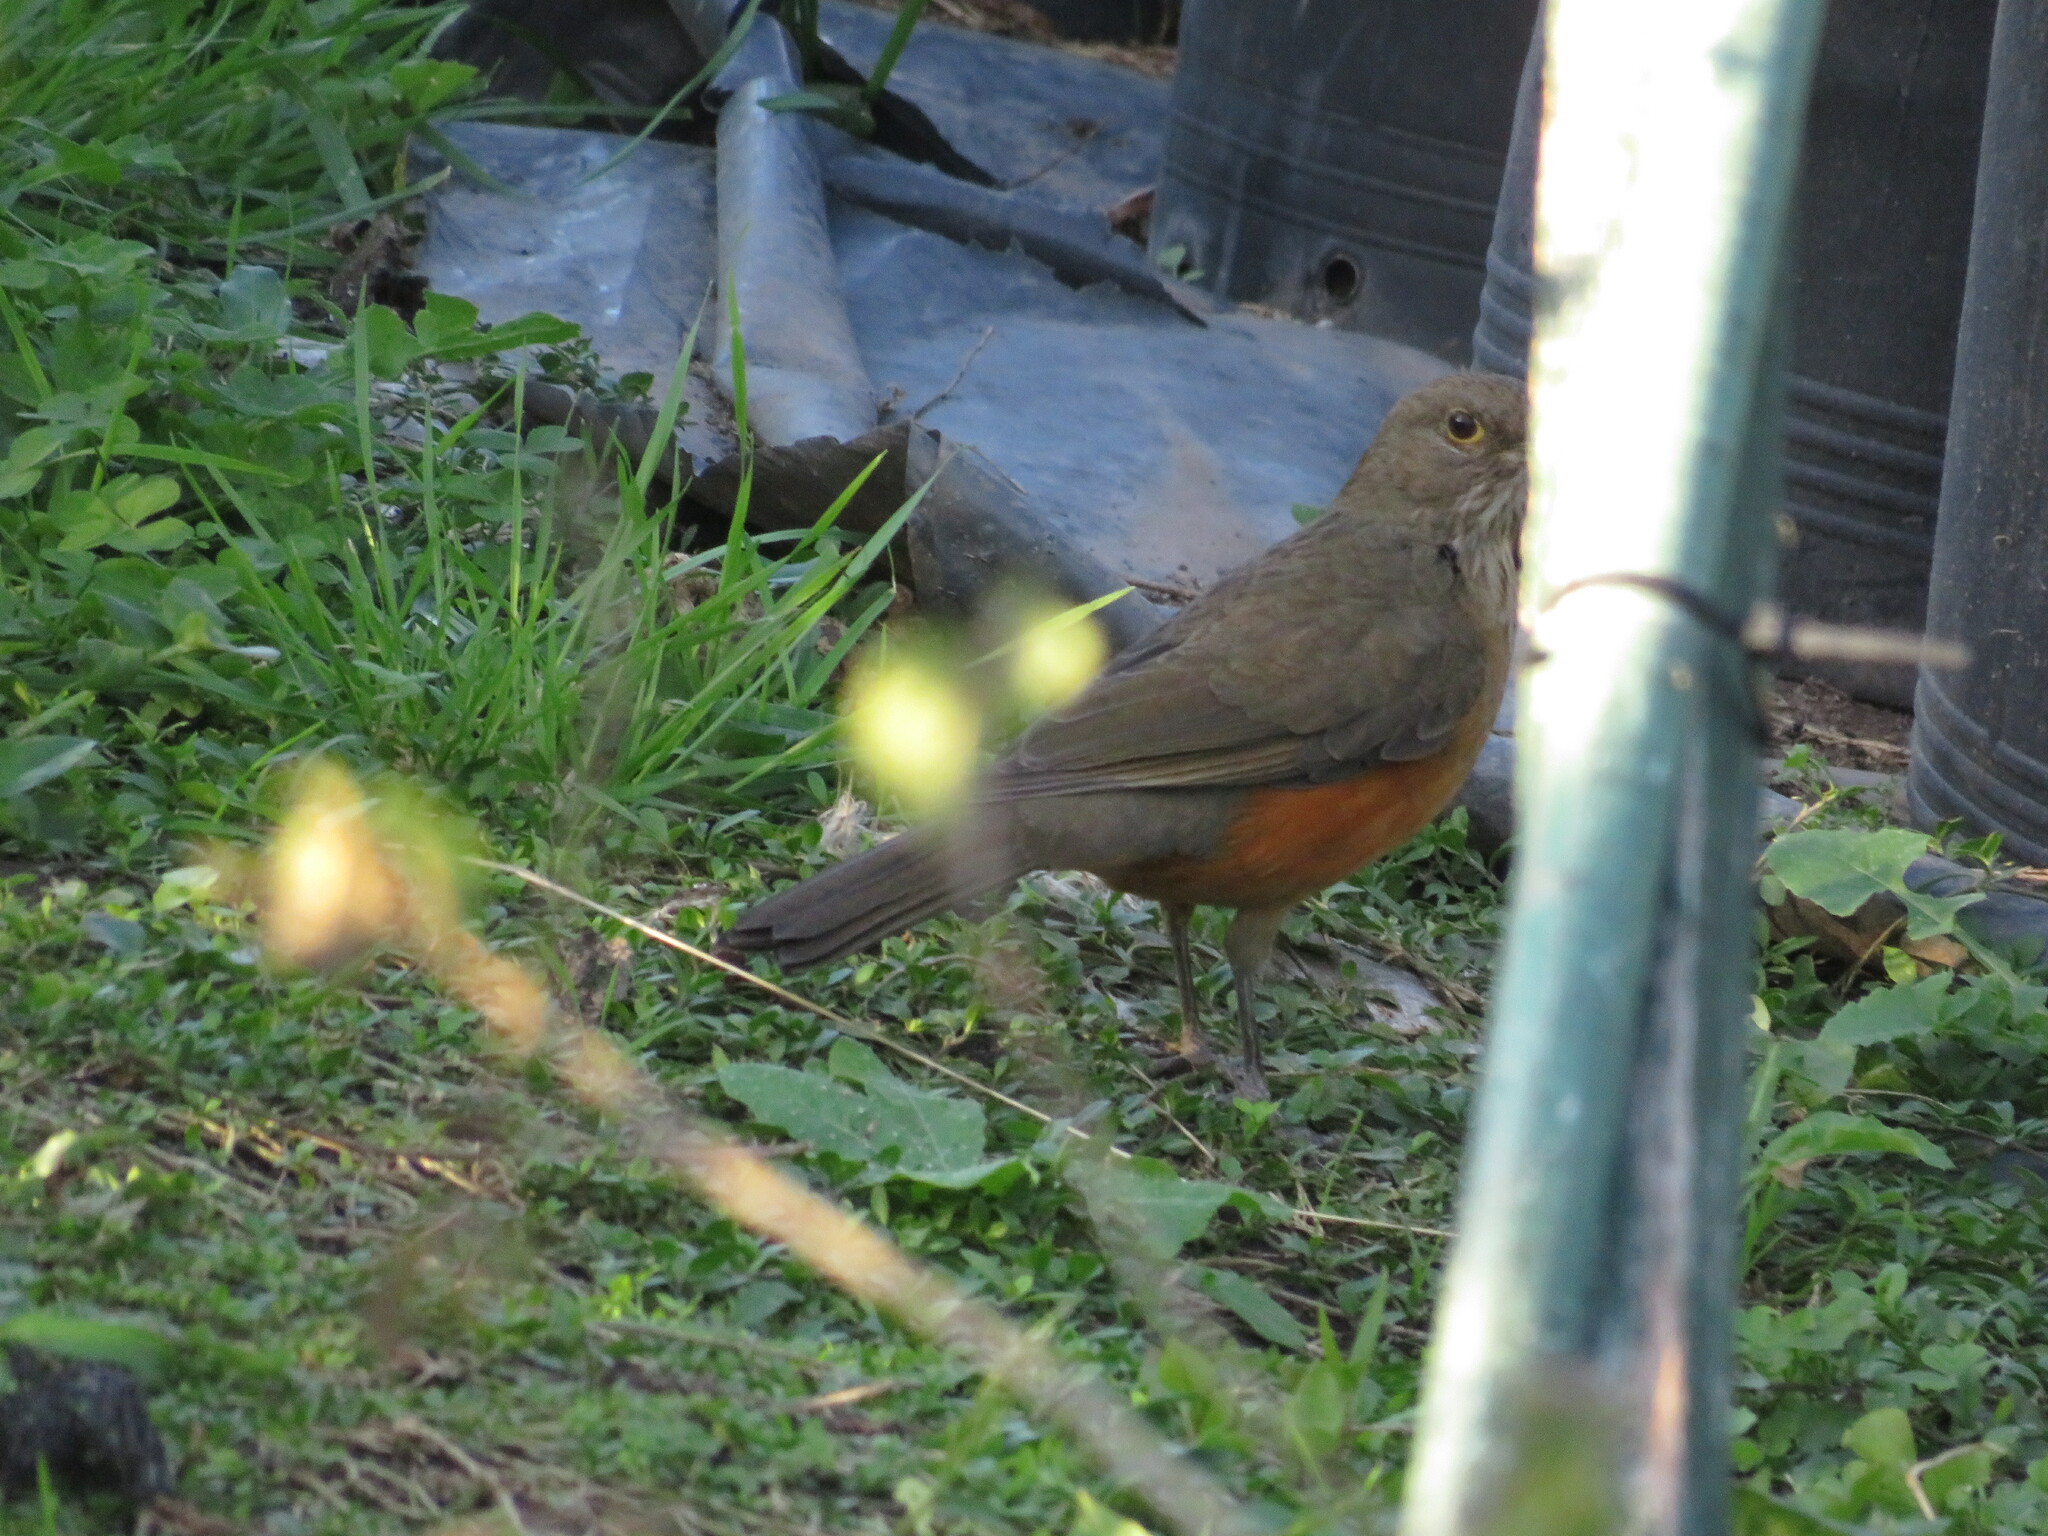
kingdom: Animalia
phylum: Chordata
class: Aves
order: Passeriformes
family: Turdidae
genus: Turdus
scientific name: Turdus rufiventris
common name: Rufous-bellied thrush
